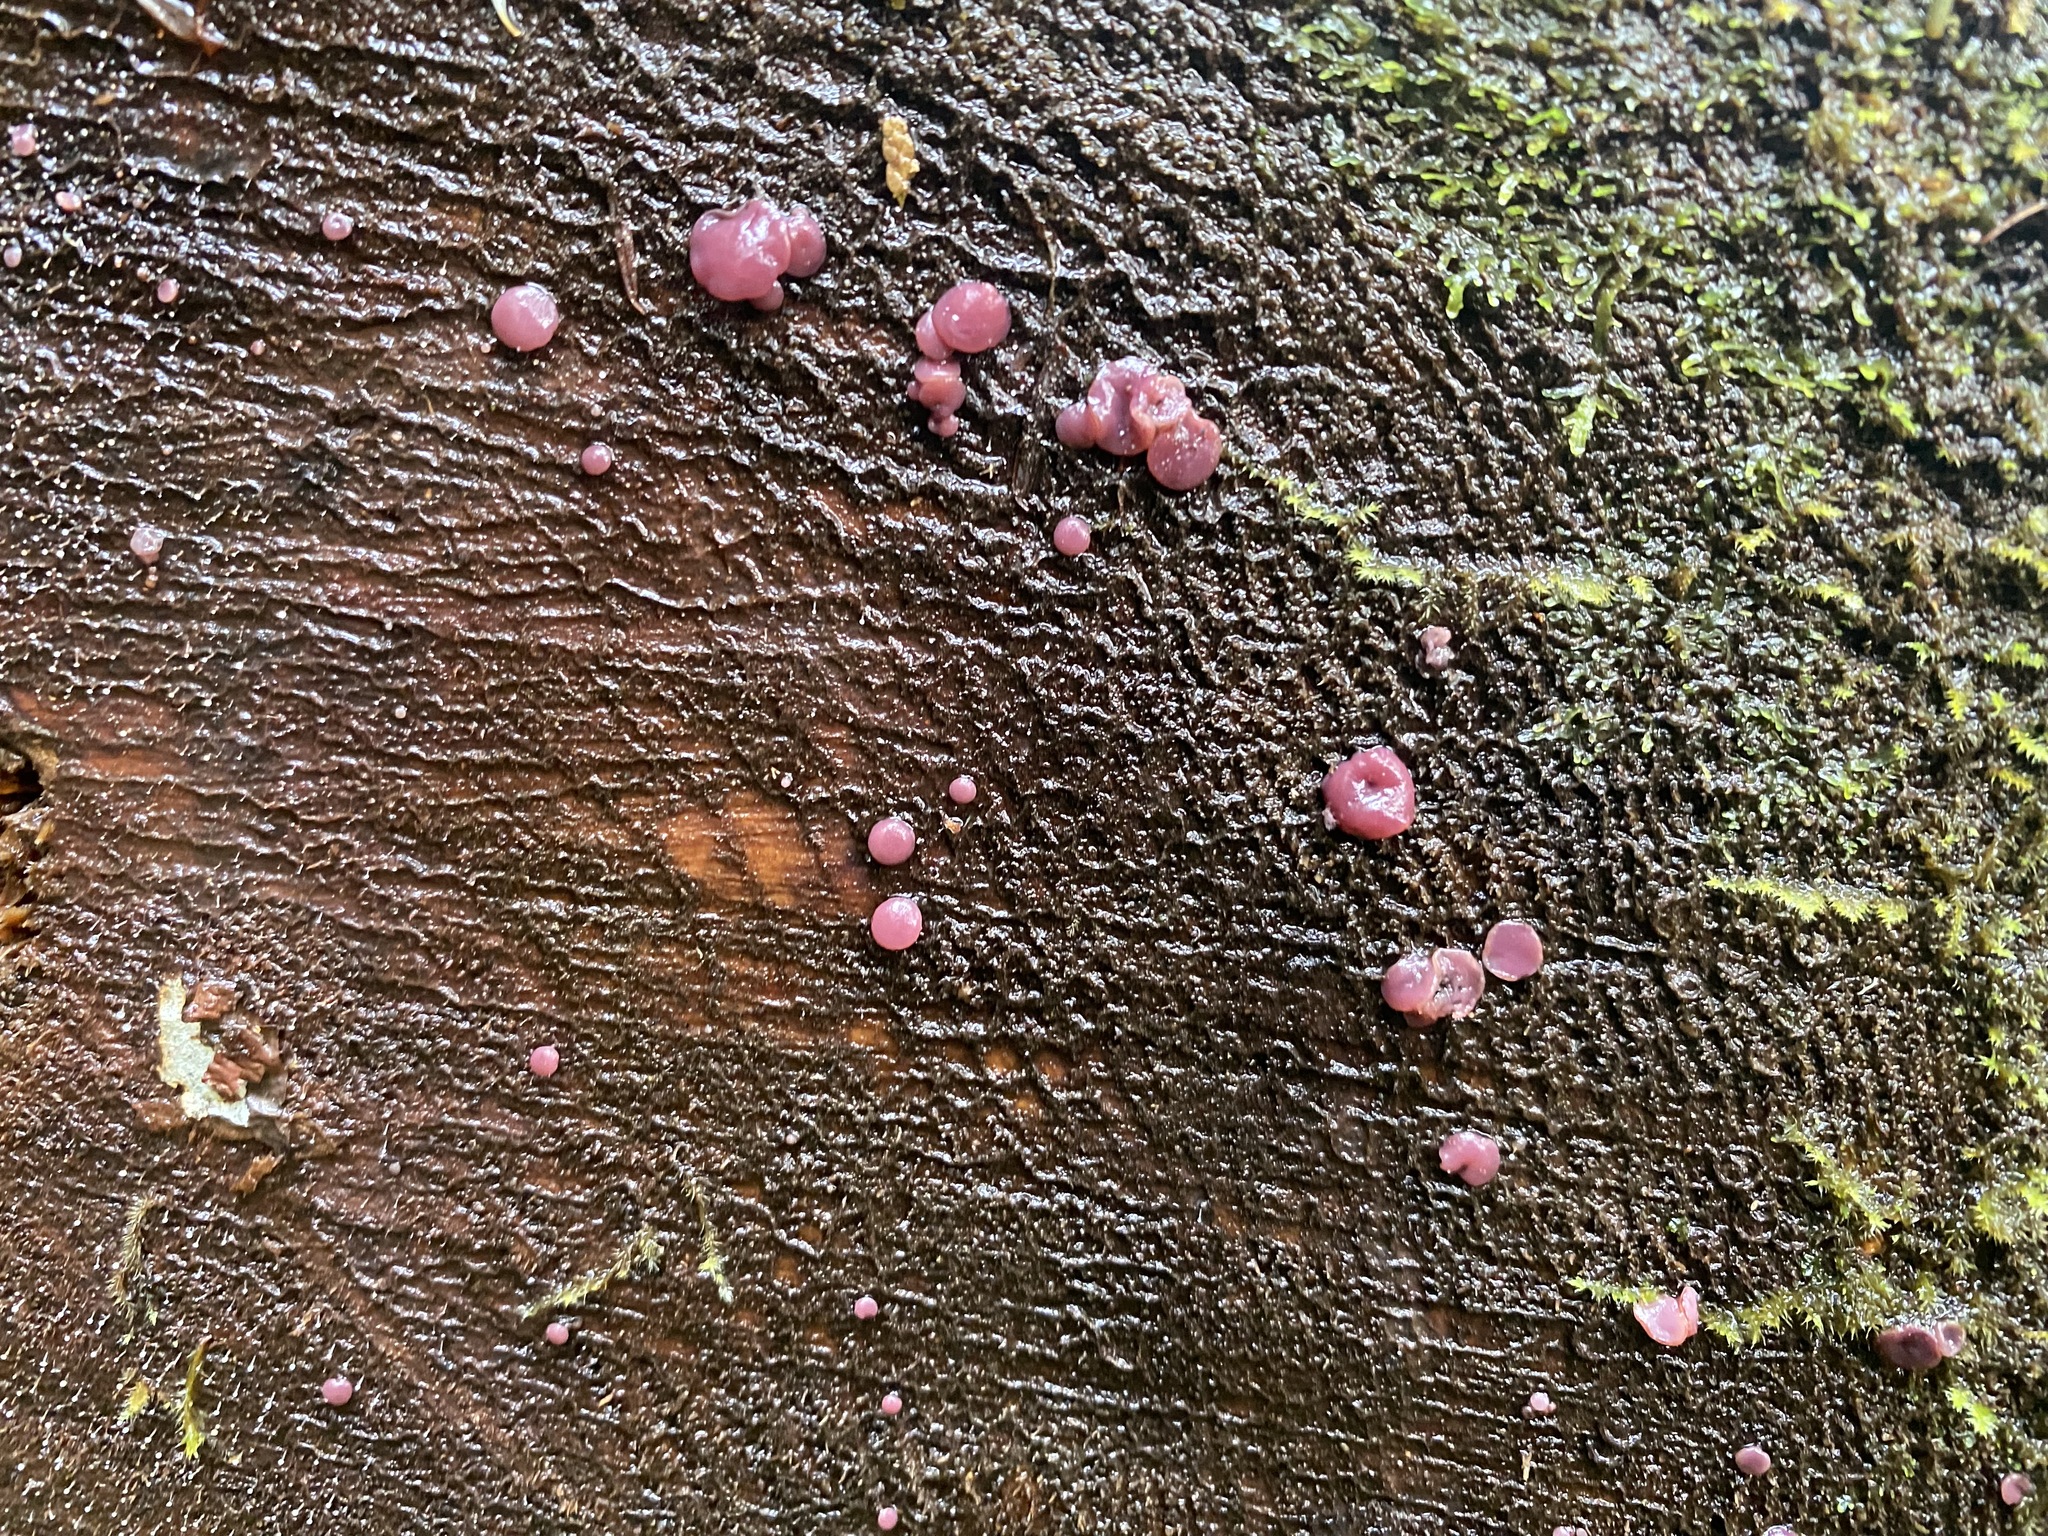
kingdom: Fungi
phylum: Ascomycota
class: Leotiomycetes
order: Helotiales
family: Gelatinodiscaceae
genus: Ascocoryne
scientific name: Ascocoryne sarcoides
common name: Purple jellydisc
